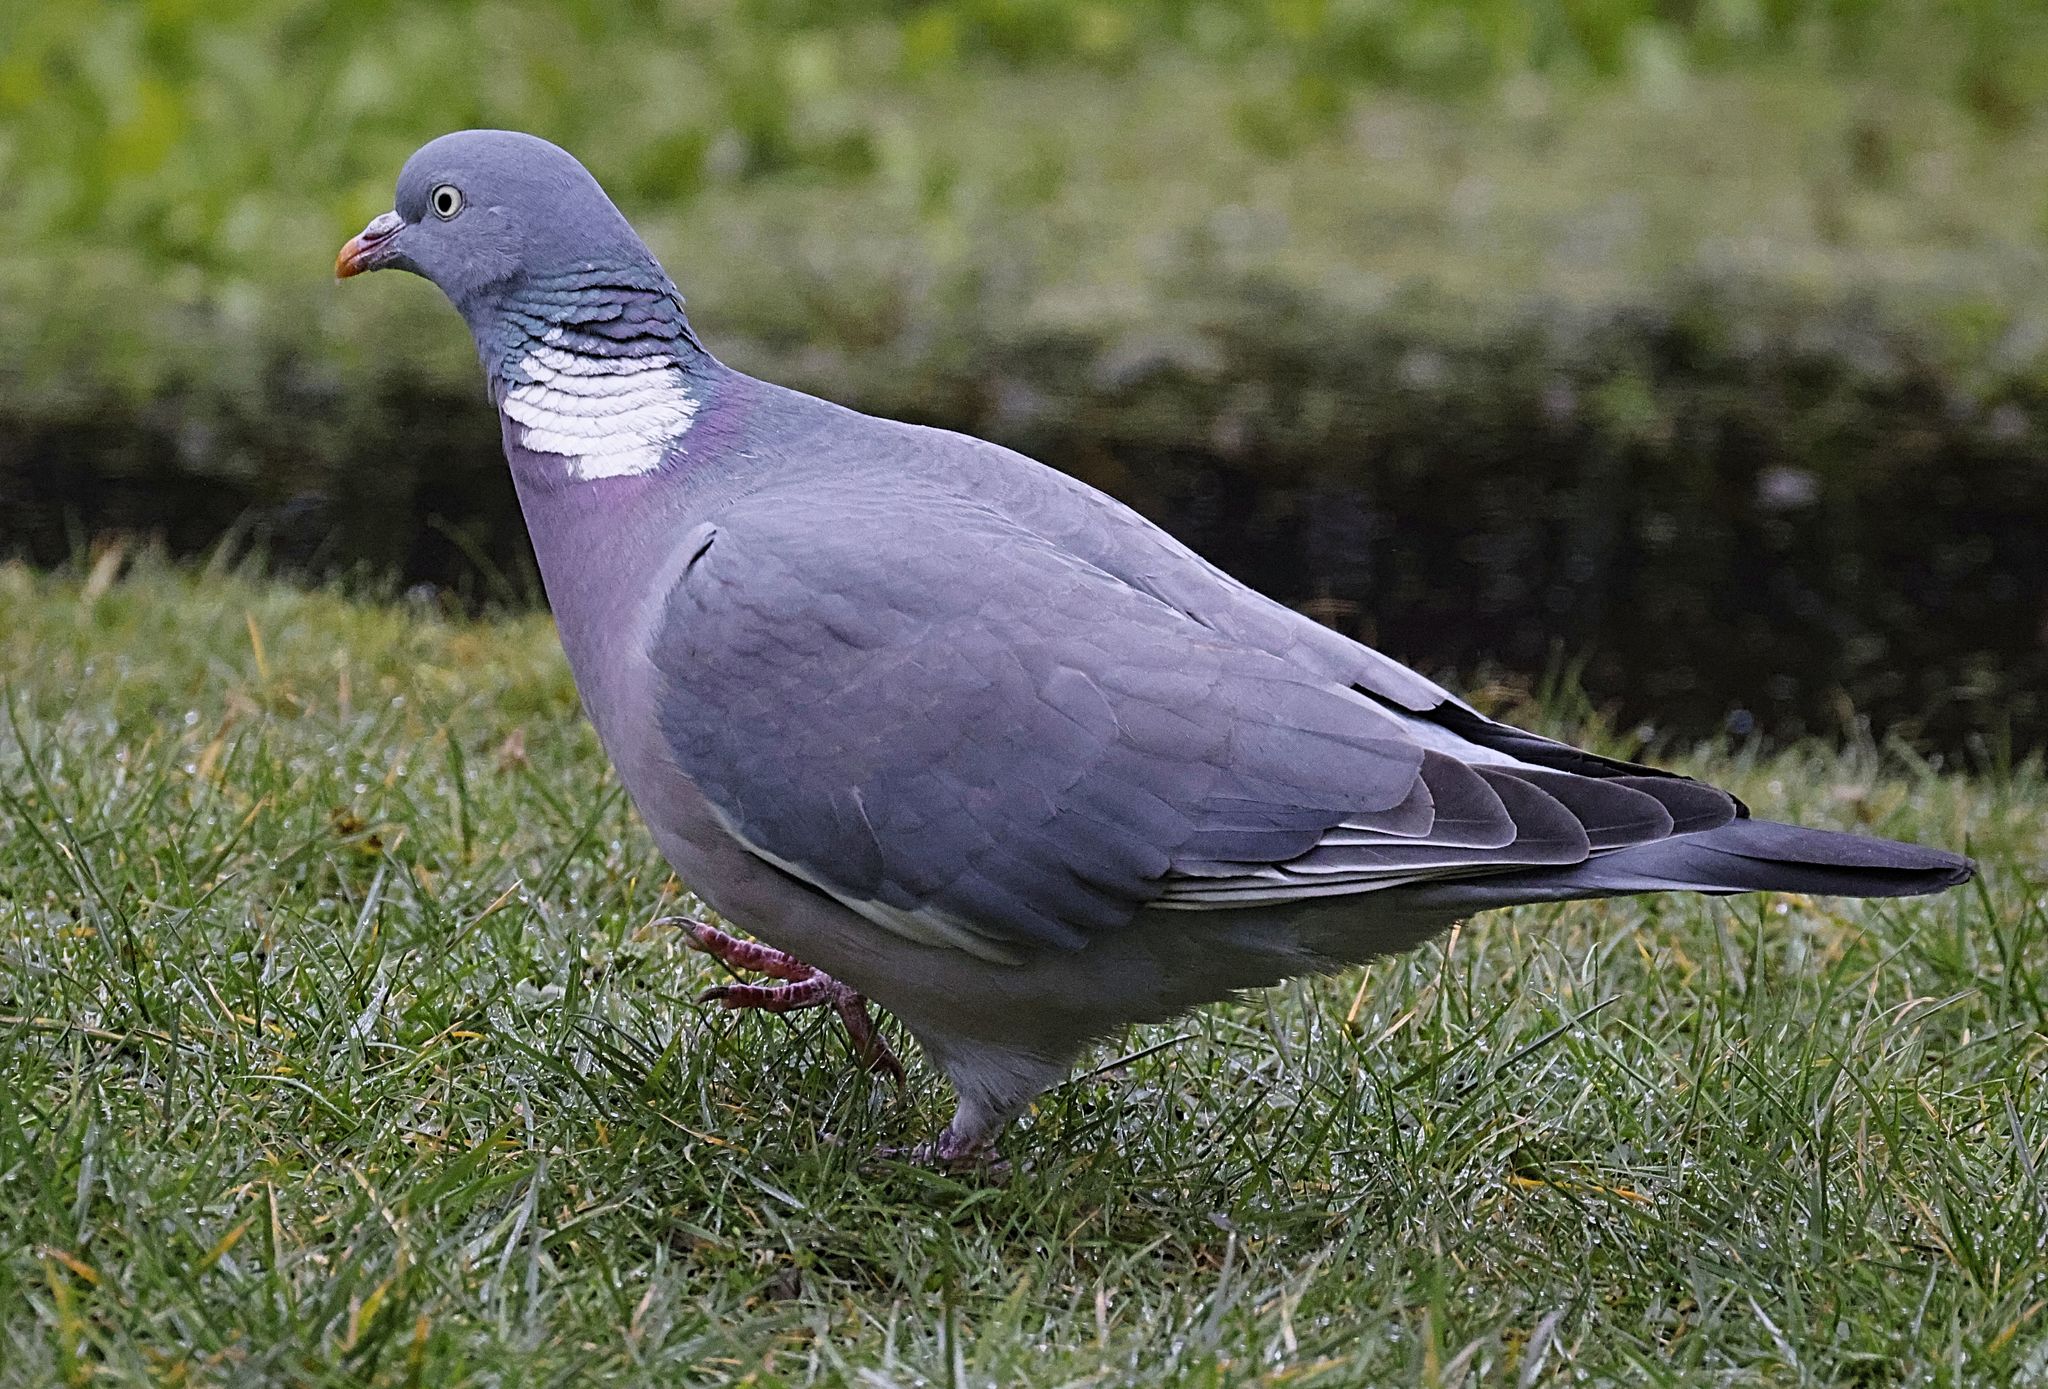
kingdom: Animalia
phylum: Chordata
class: Aves
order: Columbiformes
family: Columbidae
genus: Columba
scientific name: Columba palumbus
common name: Common wood pigeon
